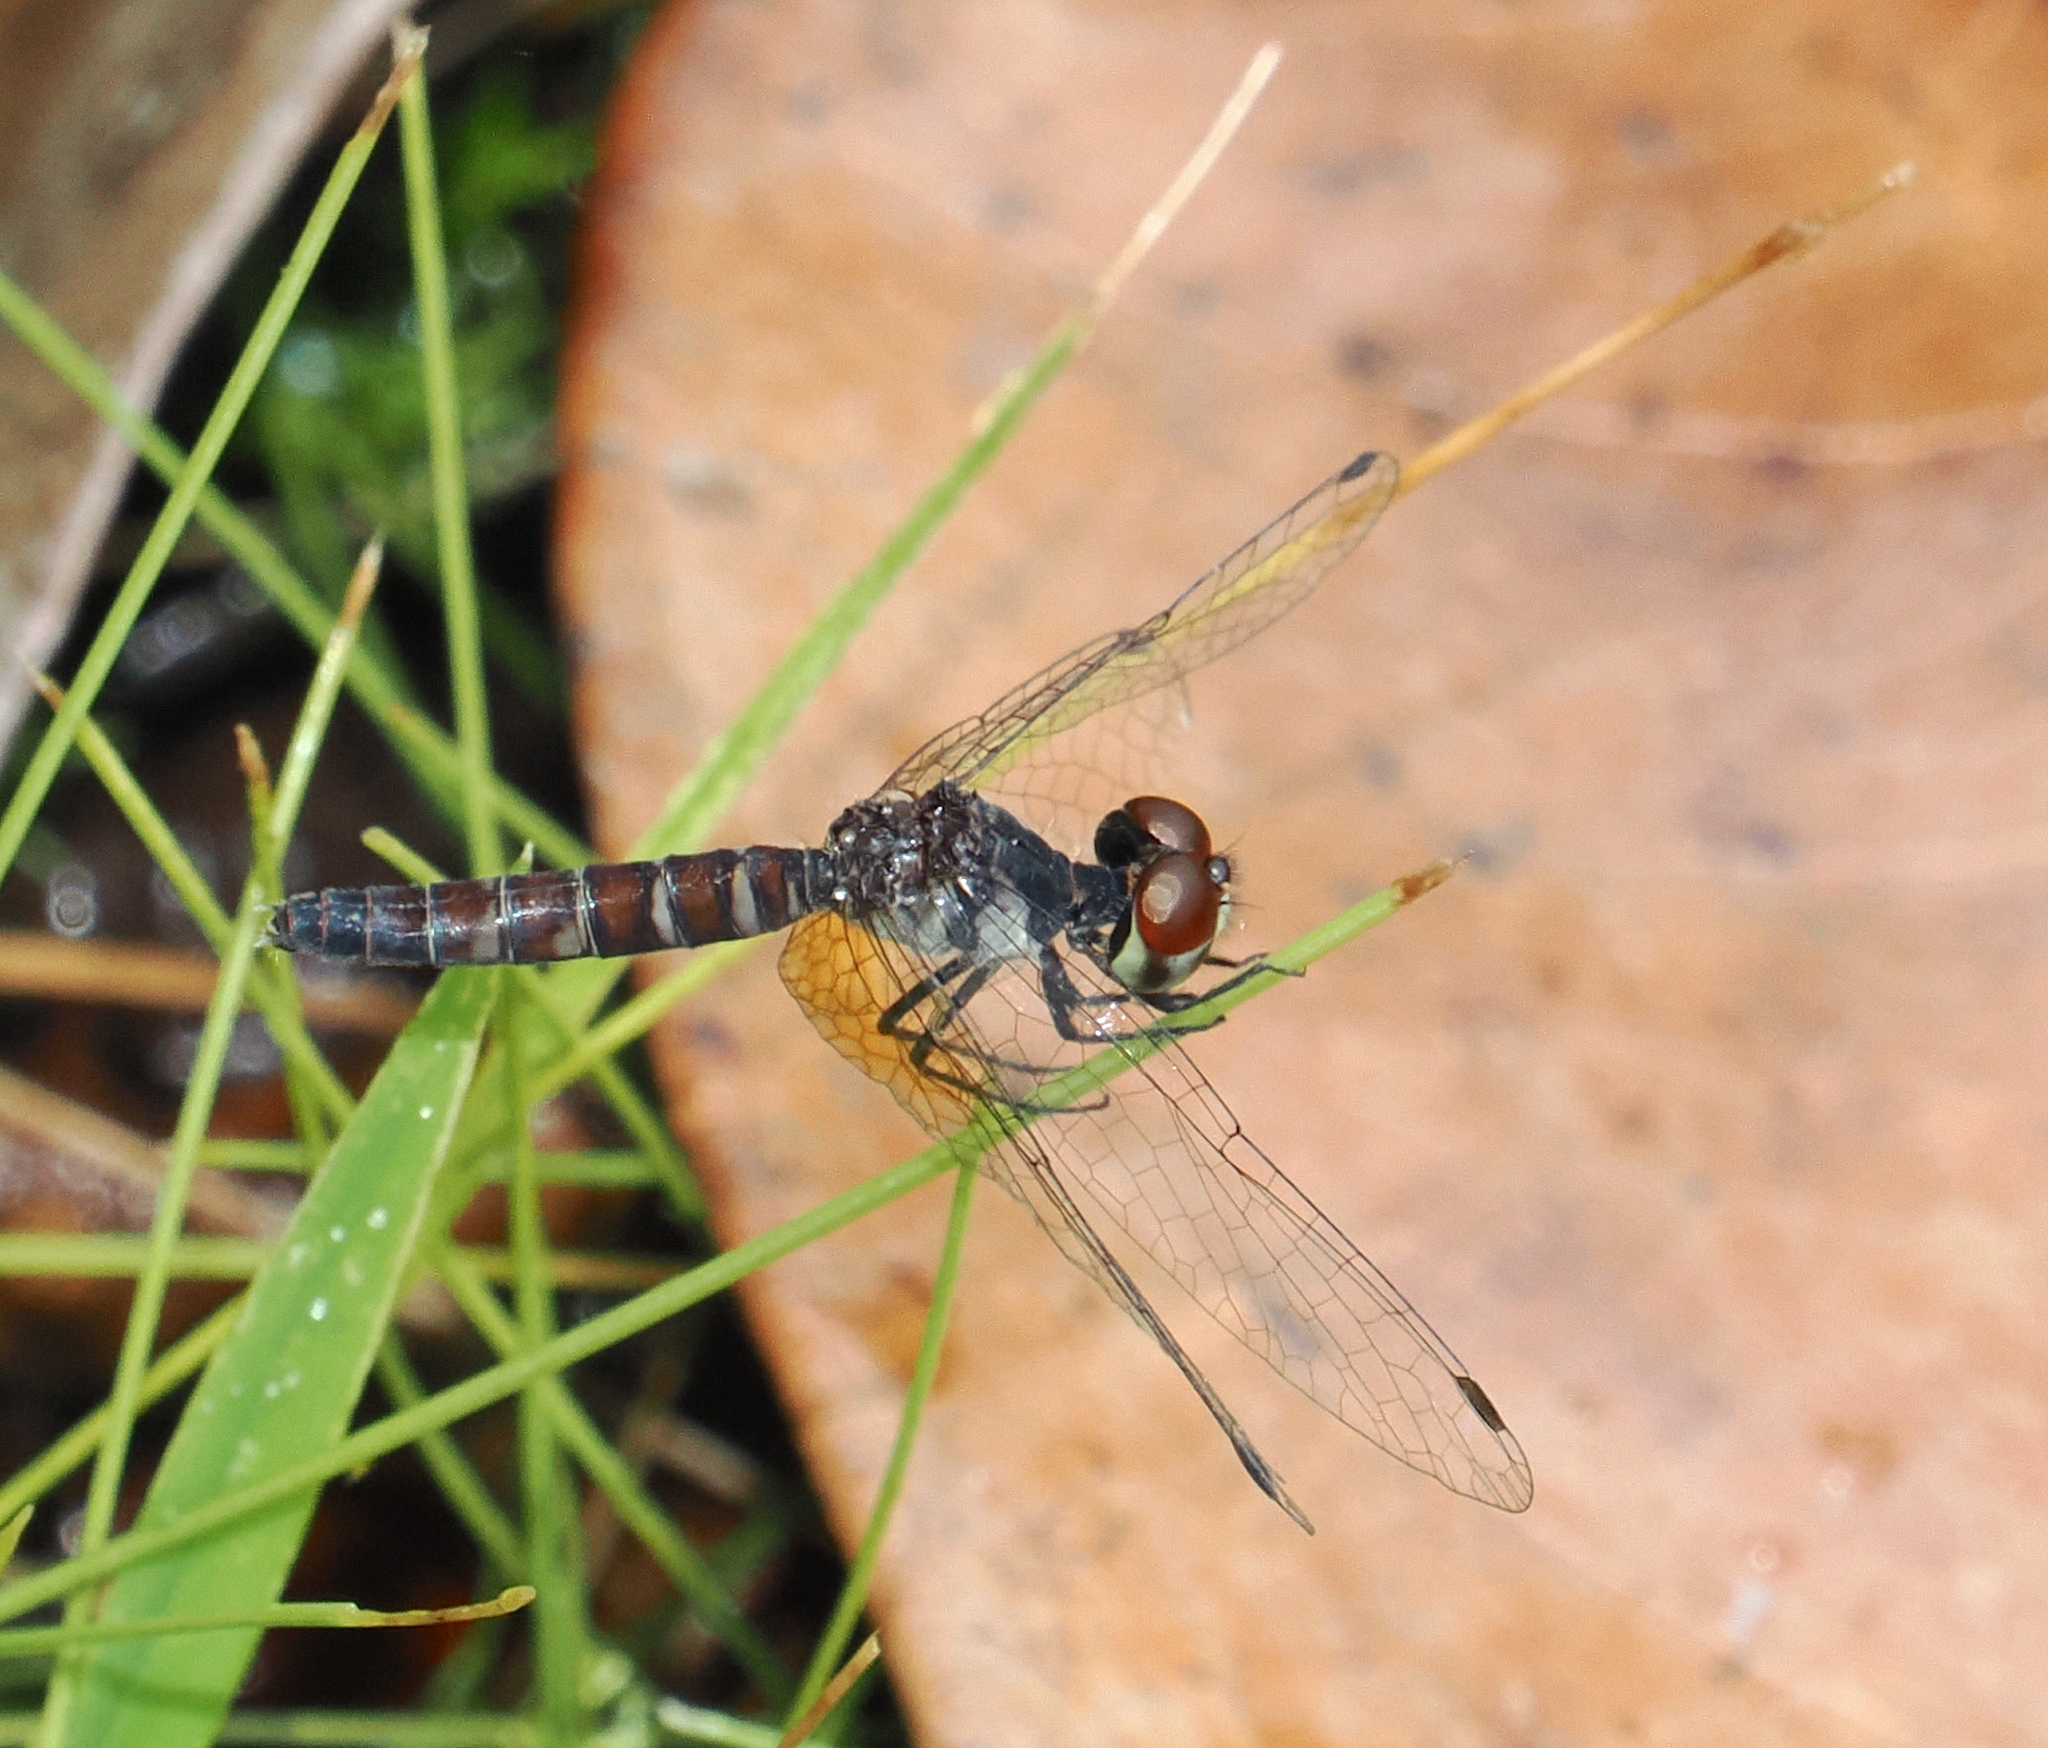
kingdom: Animalia
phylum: Arthropoda
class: Insecta
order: Odonata
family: Libellulidae
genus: Nannophya
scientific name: Nannophya pygmaea
